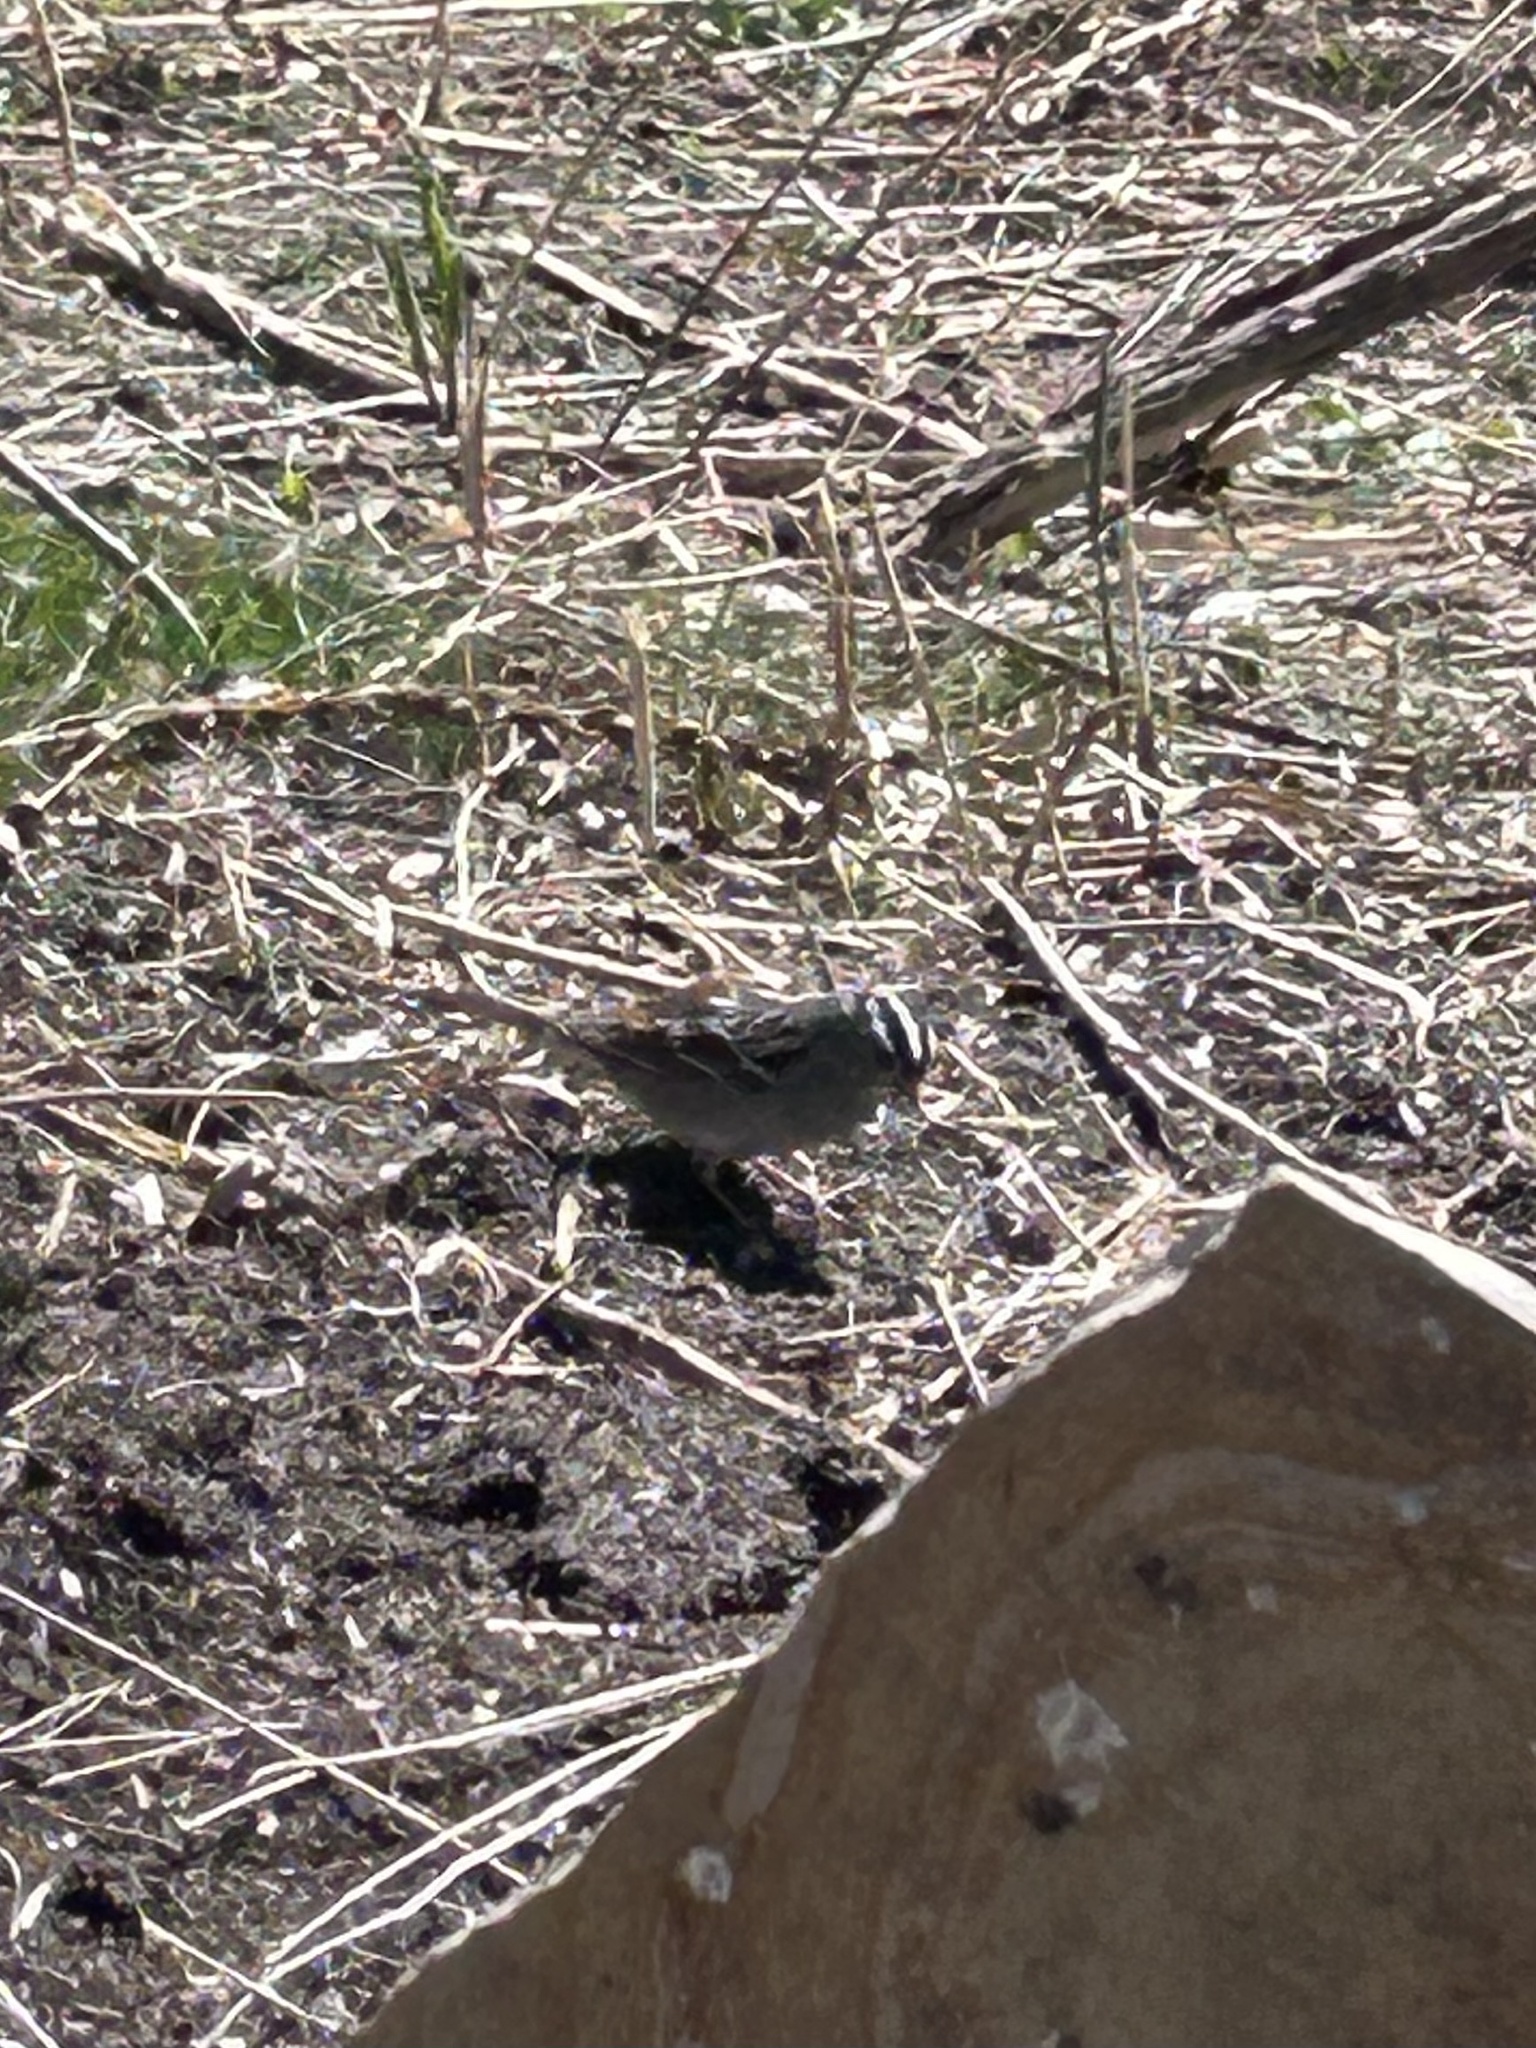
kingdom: Animalia
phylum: Chordata
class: Aves
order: Passeriformes
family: Passerellidae
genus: Zonotrichia
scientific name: Zonotrichia leucophrys
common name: White-crowned sparrow
